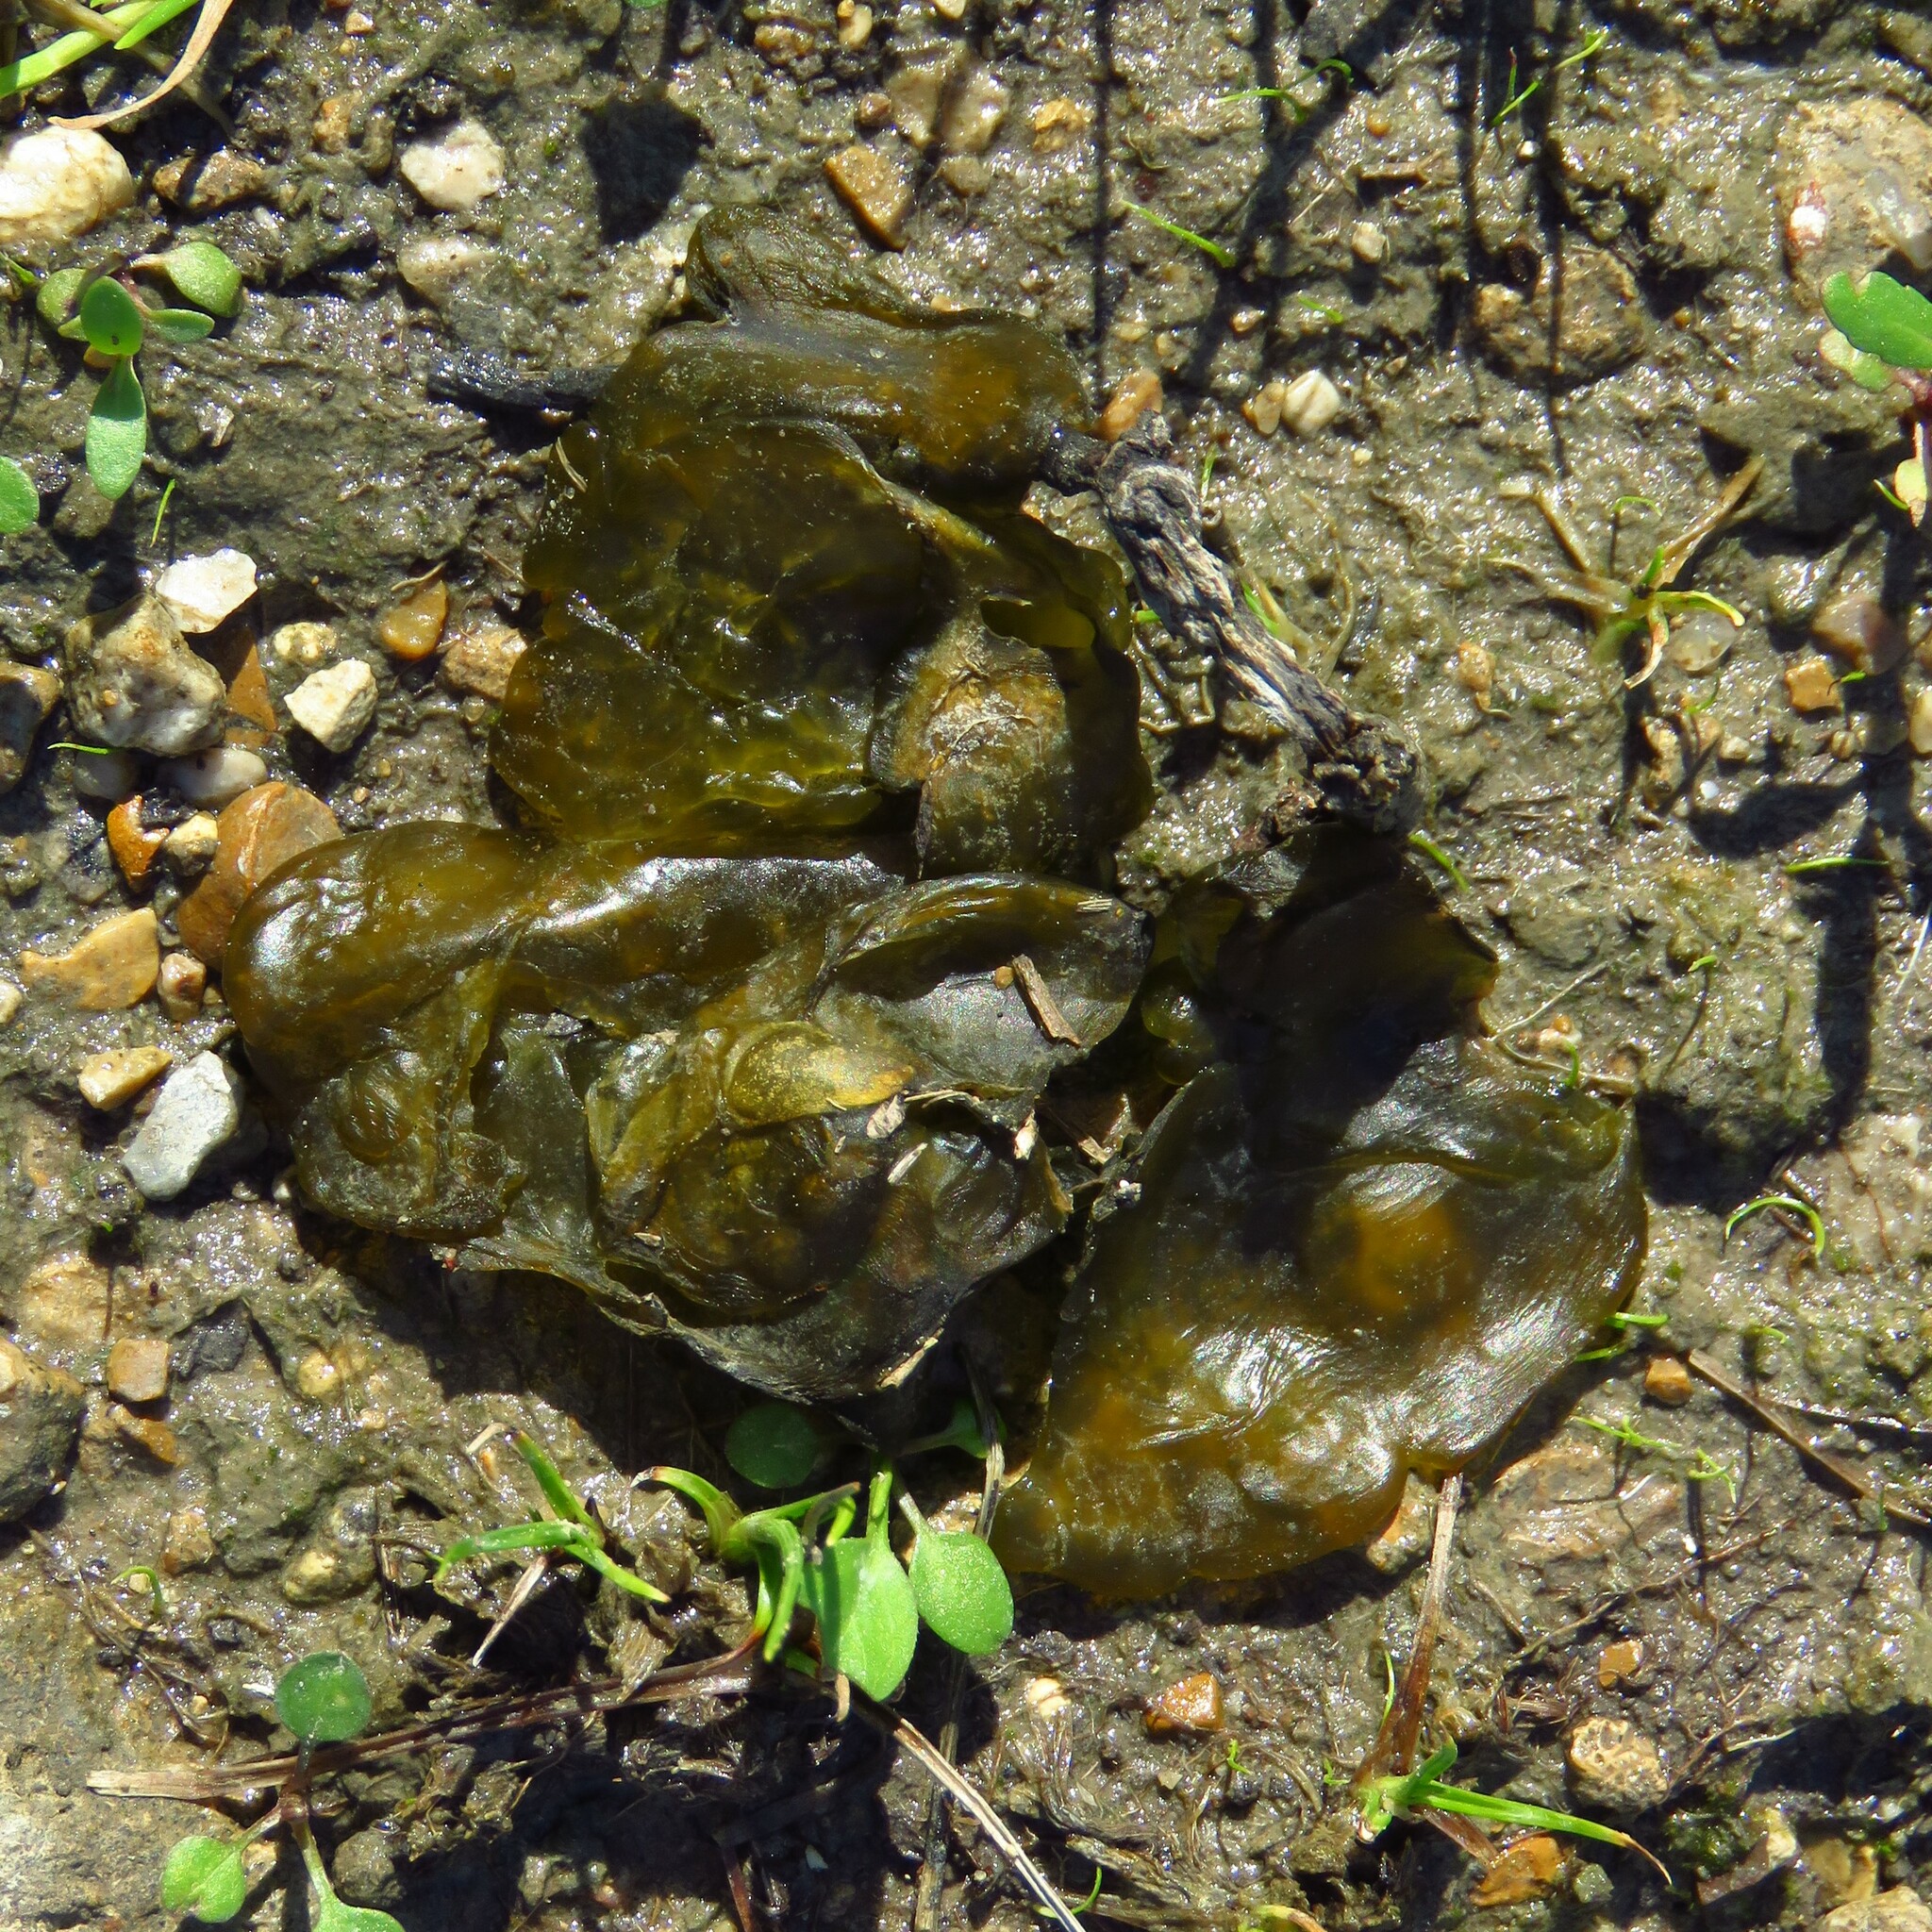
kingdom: Bacteria
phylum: Cyanobacteria
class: Cyanobacteriia
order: Cyanobacteriales
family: Nostocaceae
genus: Nostoc
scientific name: Nostoc commune
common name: Star jelly
